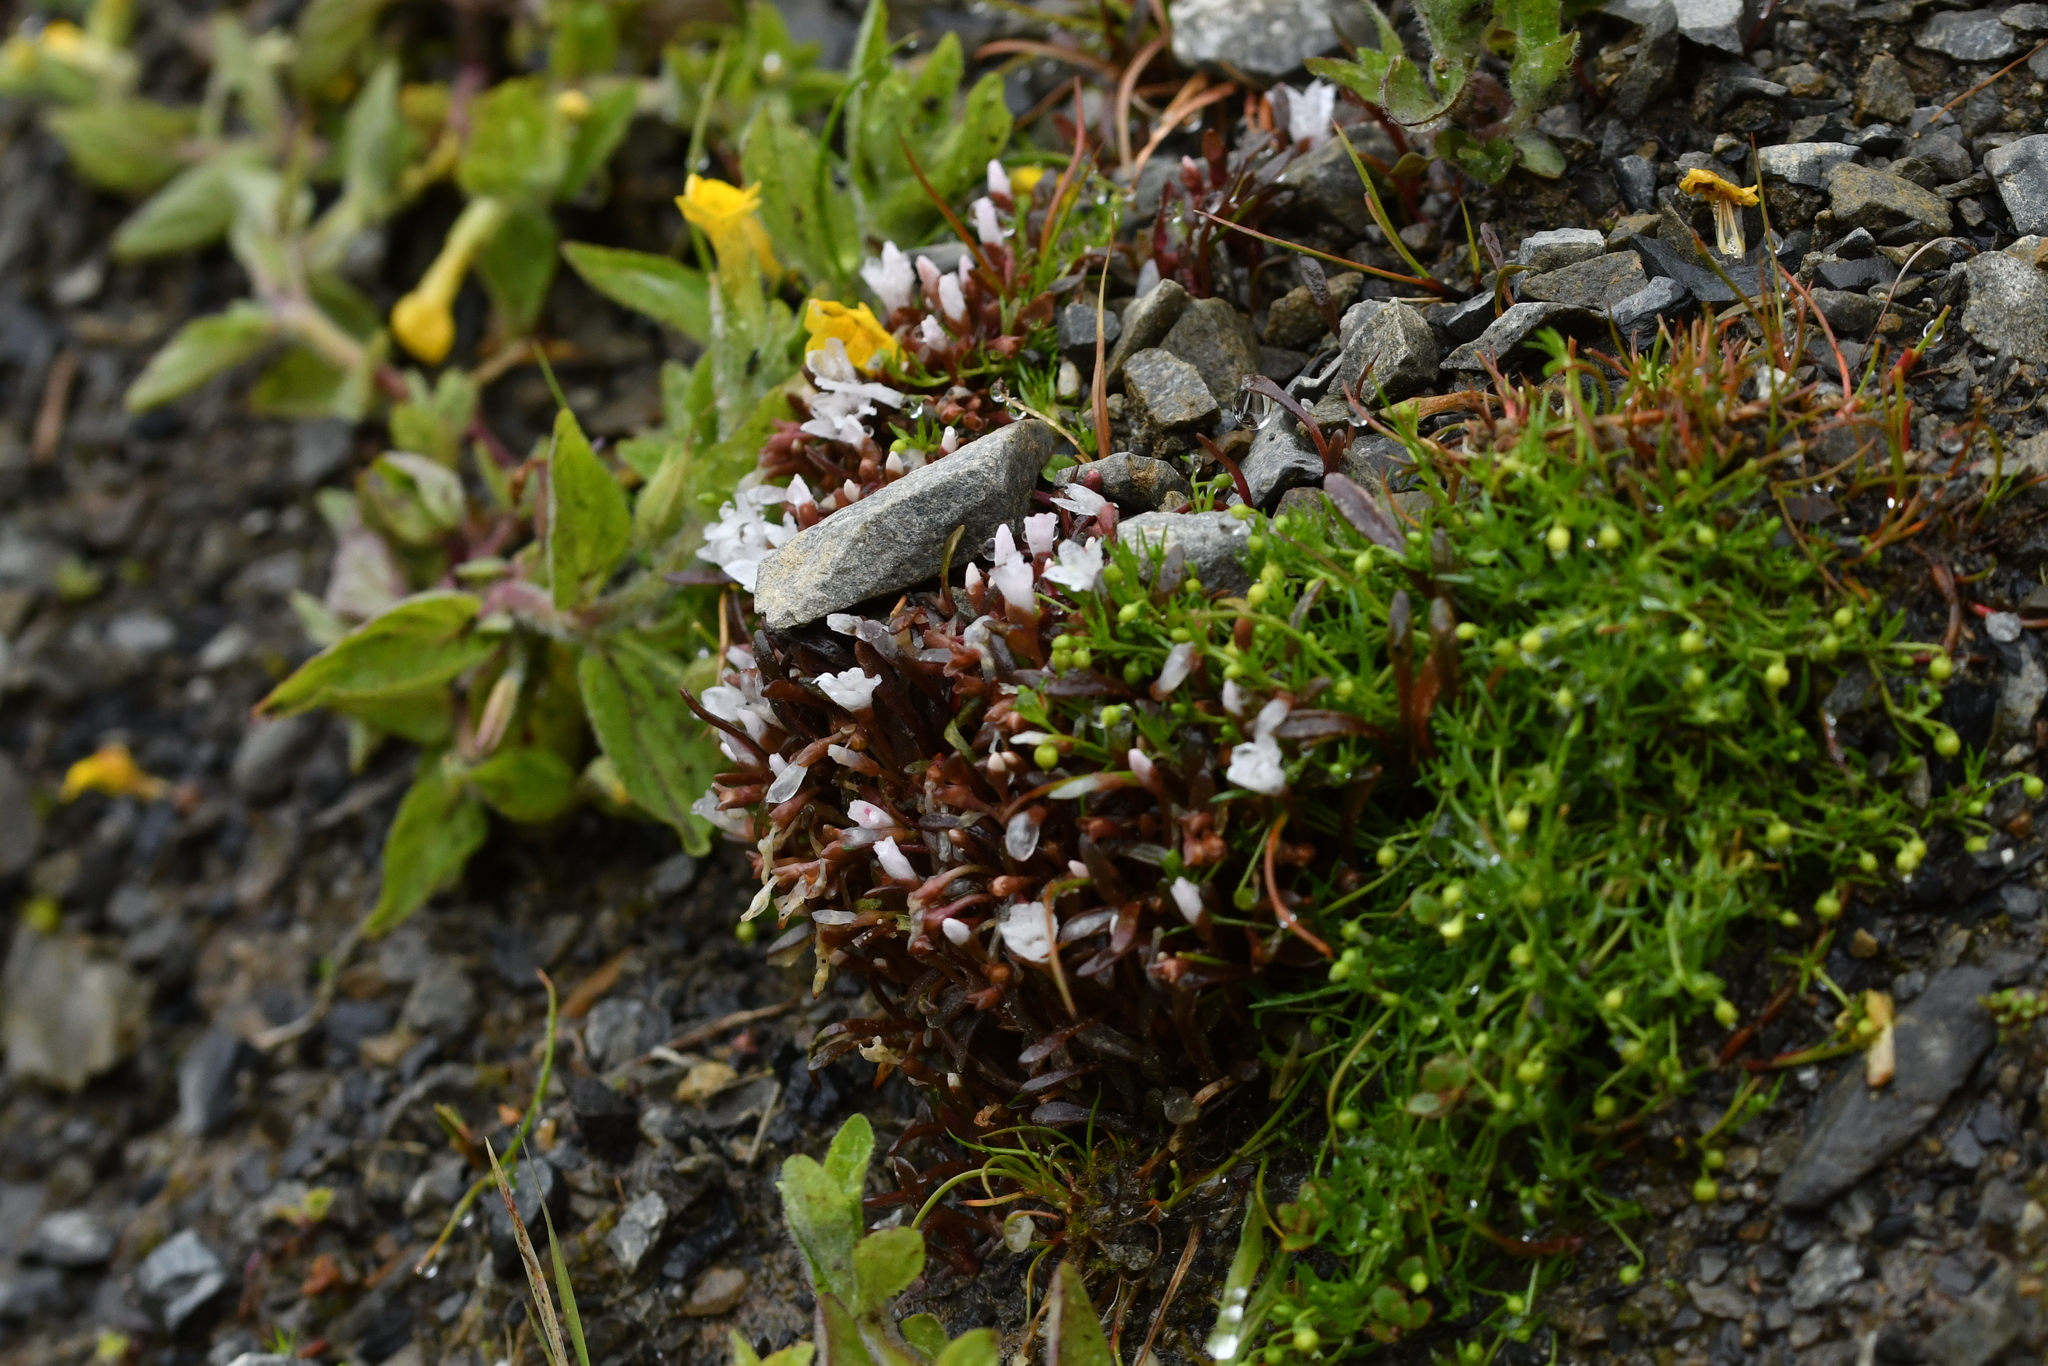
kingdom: Plantae
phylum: Tracheophyta
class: Magnoliopsida
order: Caryophyllales
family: Montiaceae
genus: Montia
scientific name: Montia erythrophylla
